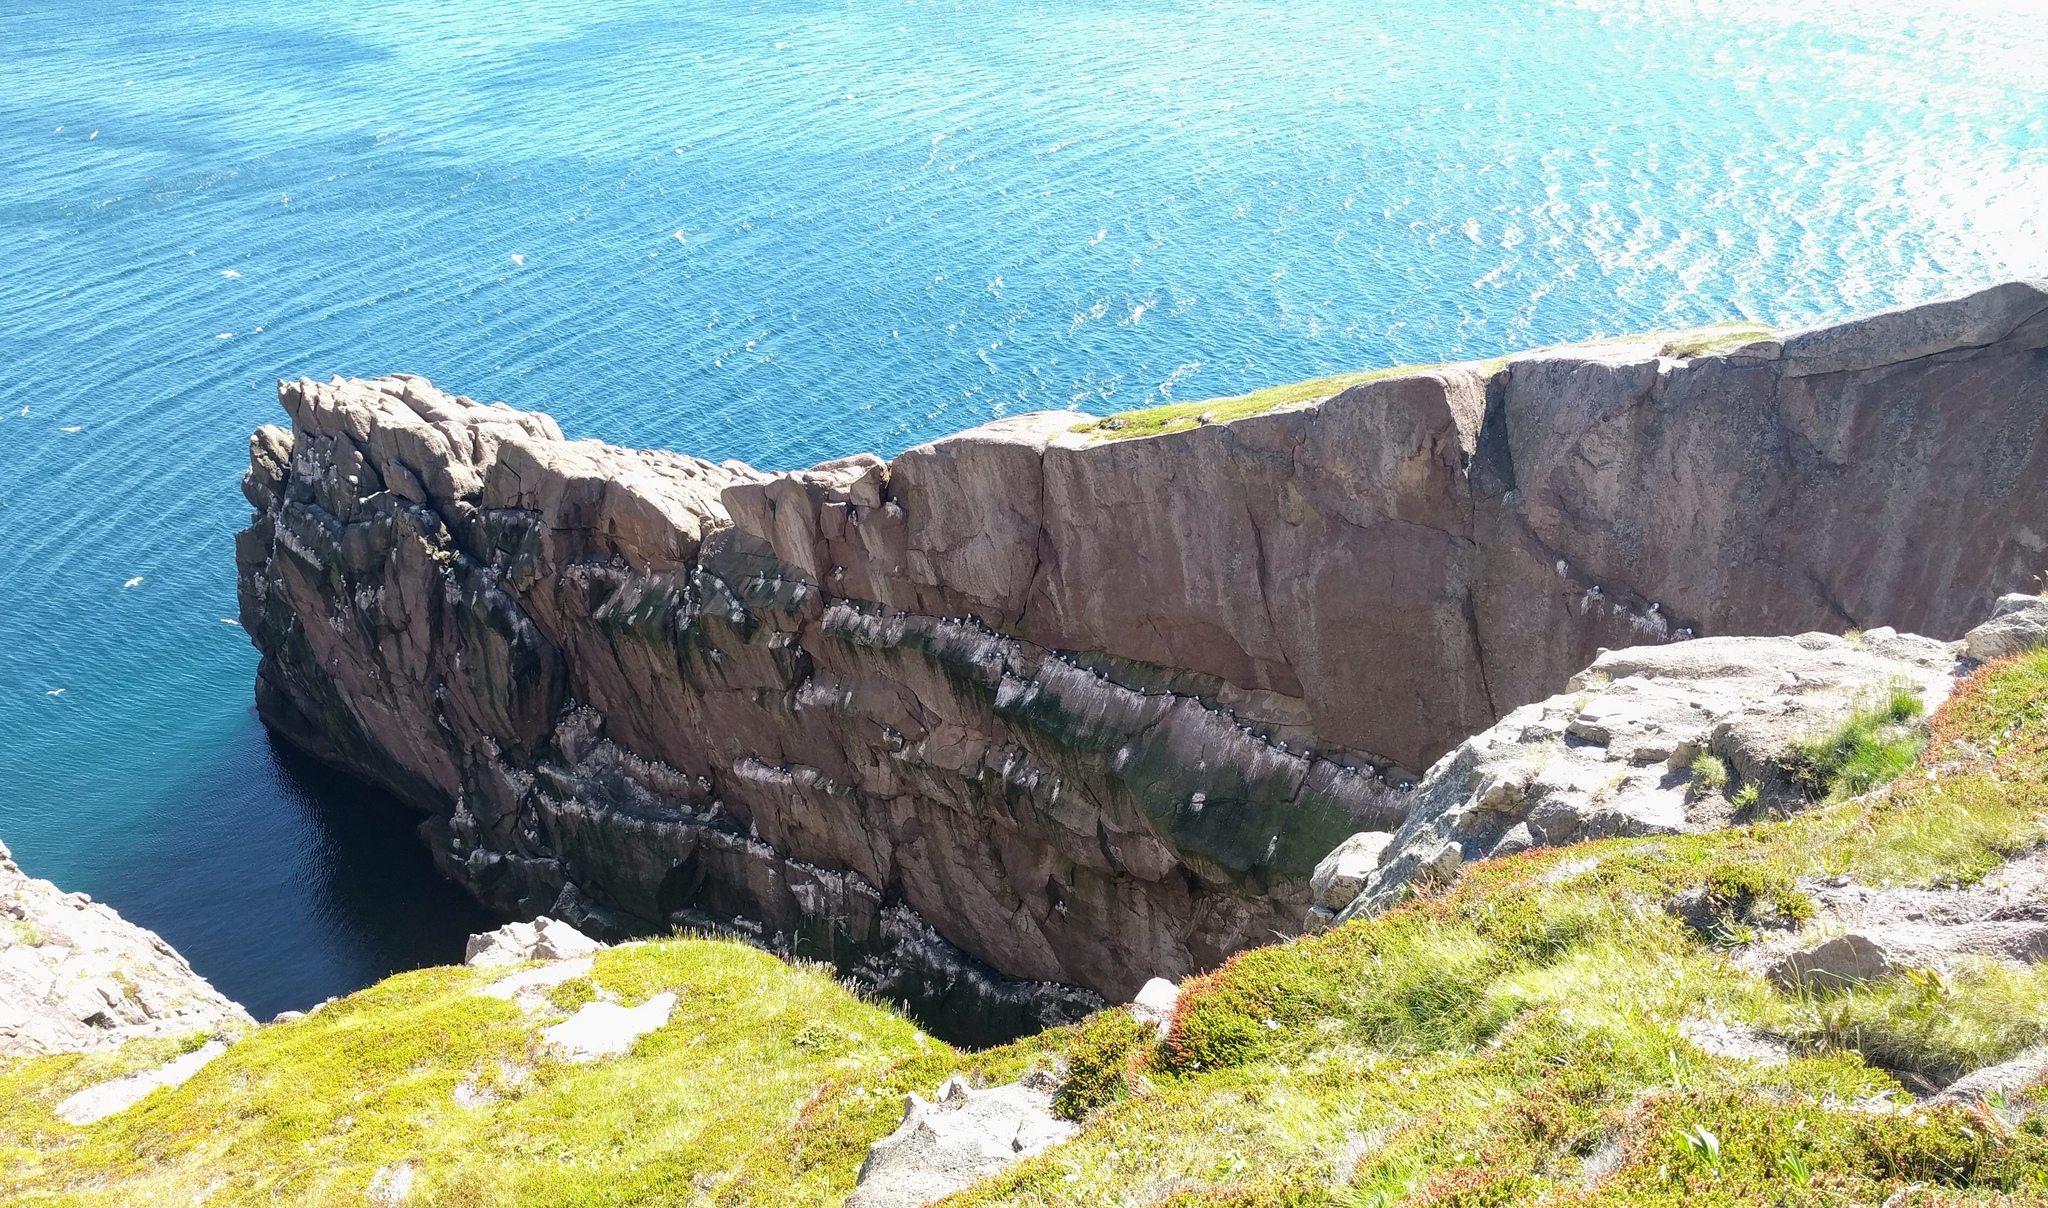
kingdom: Animalia
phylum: Chordata
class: Aves
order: Charadriiformes
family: Laridae
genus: Rissa
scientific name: Rissa tridactyla
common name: Black-legged kittiwake
